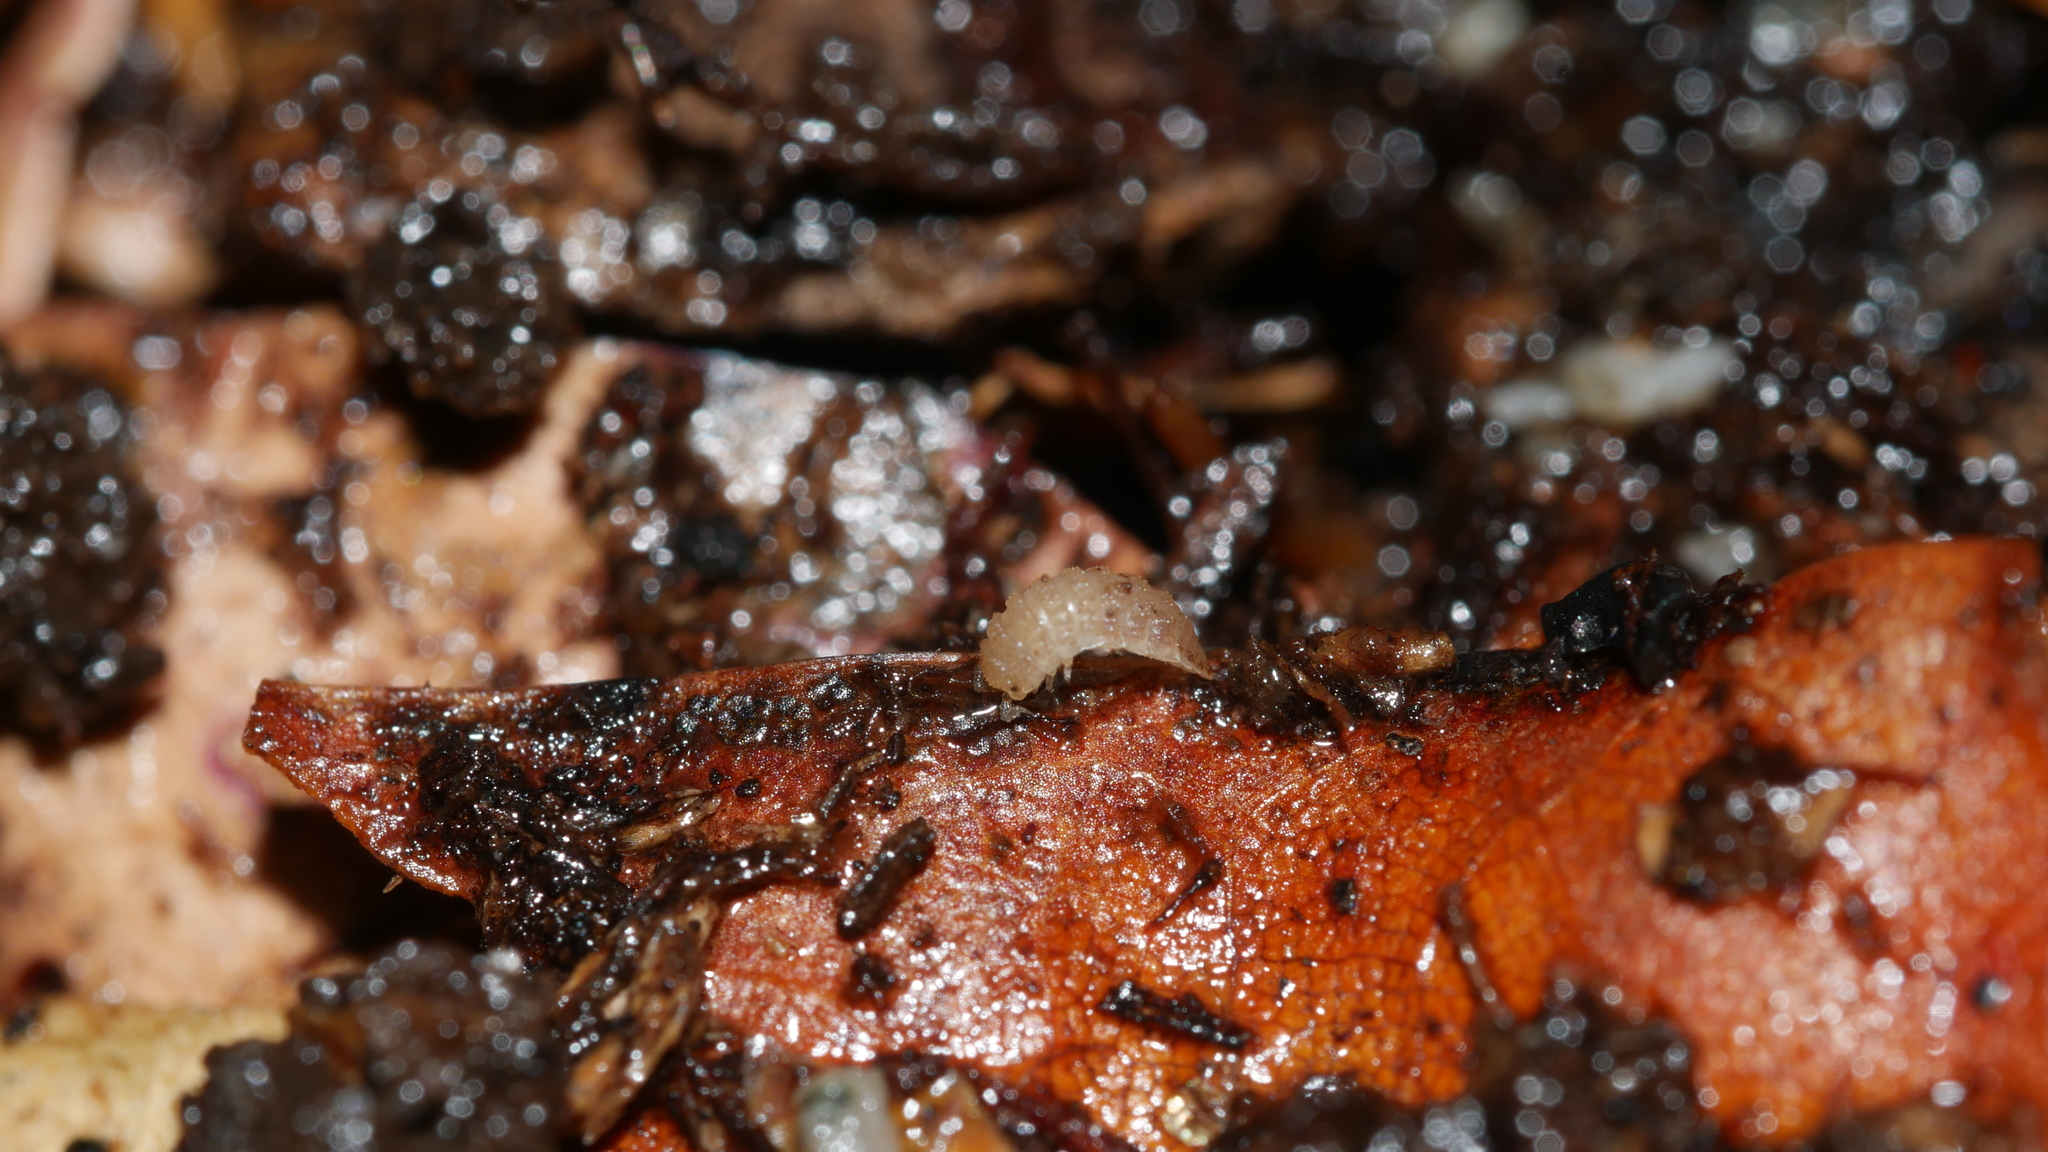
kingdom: Animalia
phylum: Arthropoda
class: Malacostraca
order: Isopoda
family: Trichoniscidae
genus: Haplophthalmus
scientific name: Haplophthalmus danicus
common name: Pillbug
